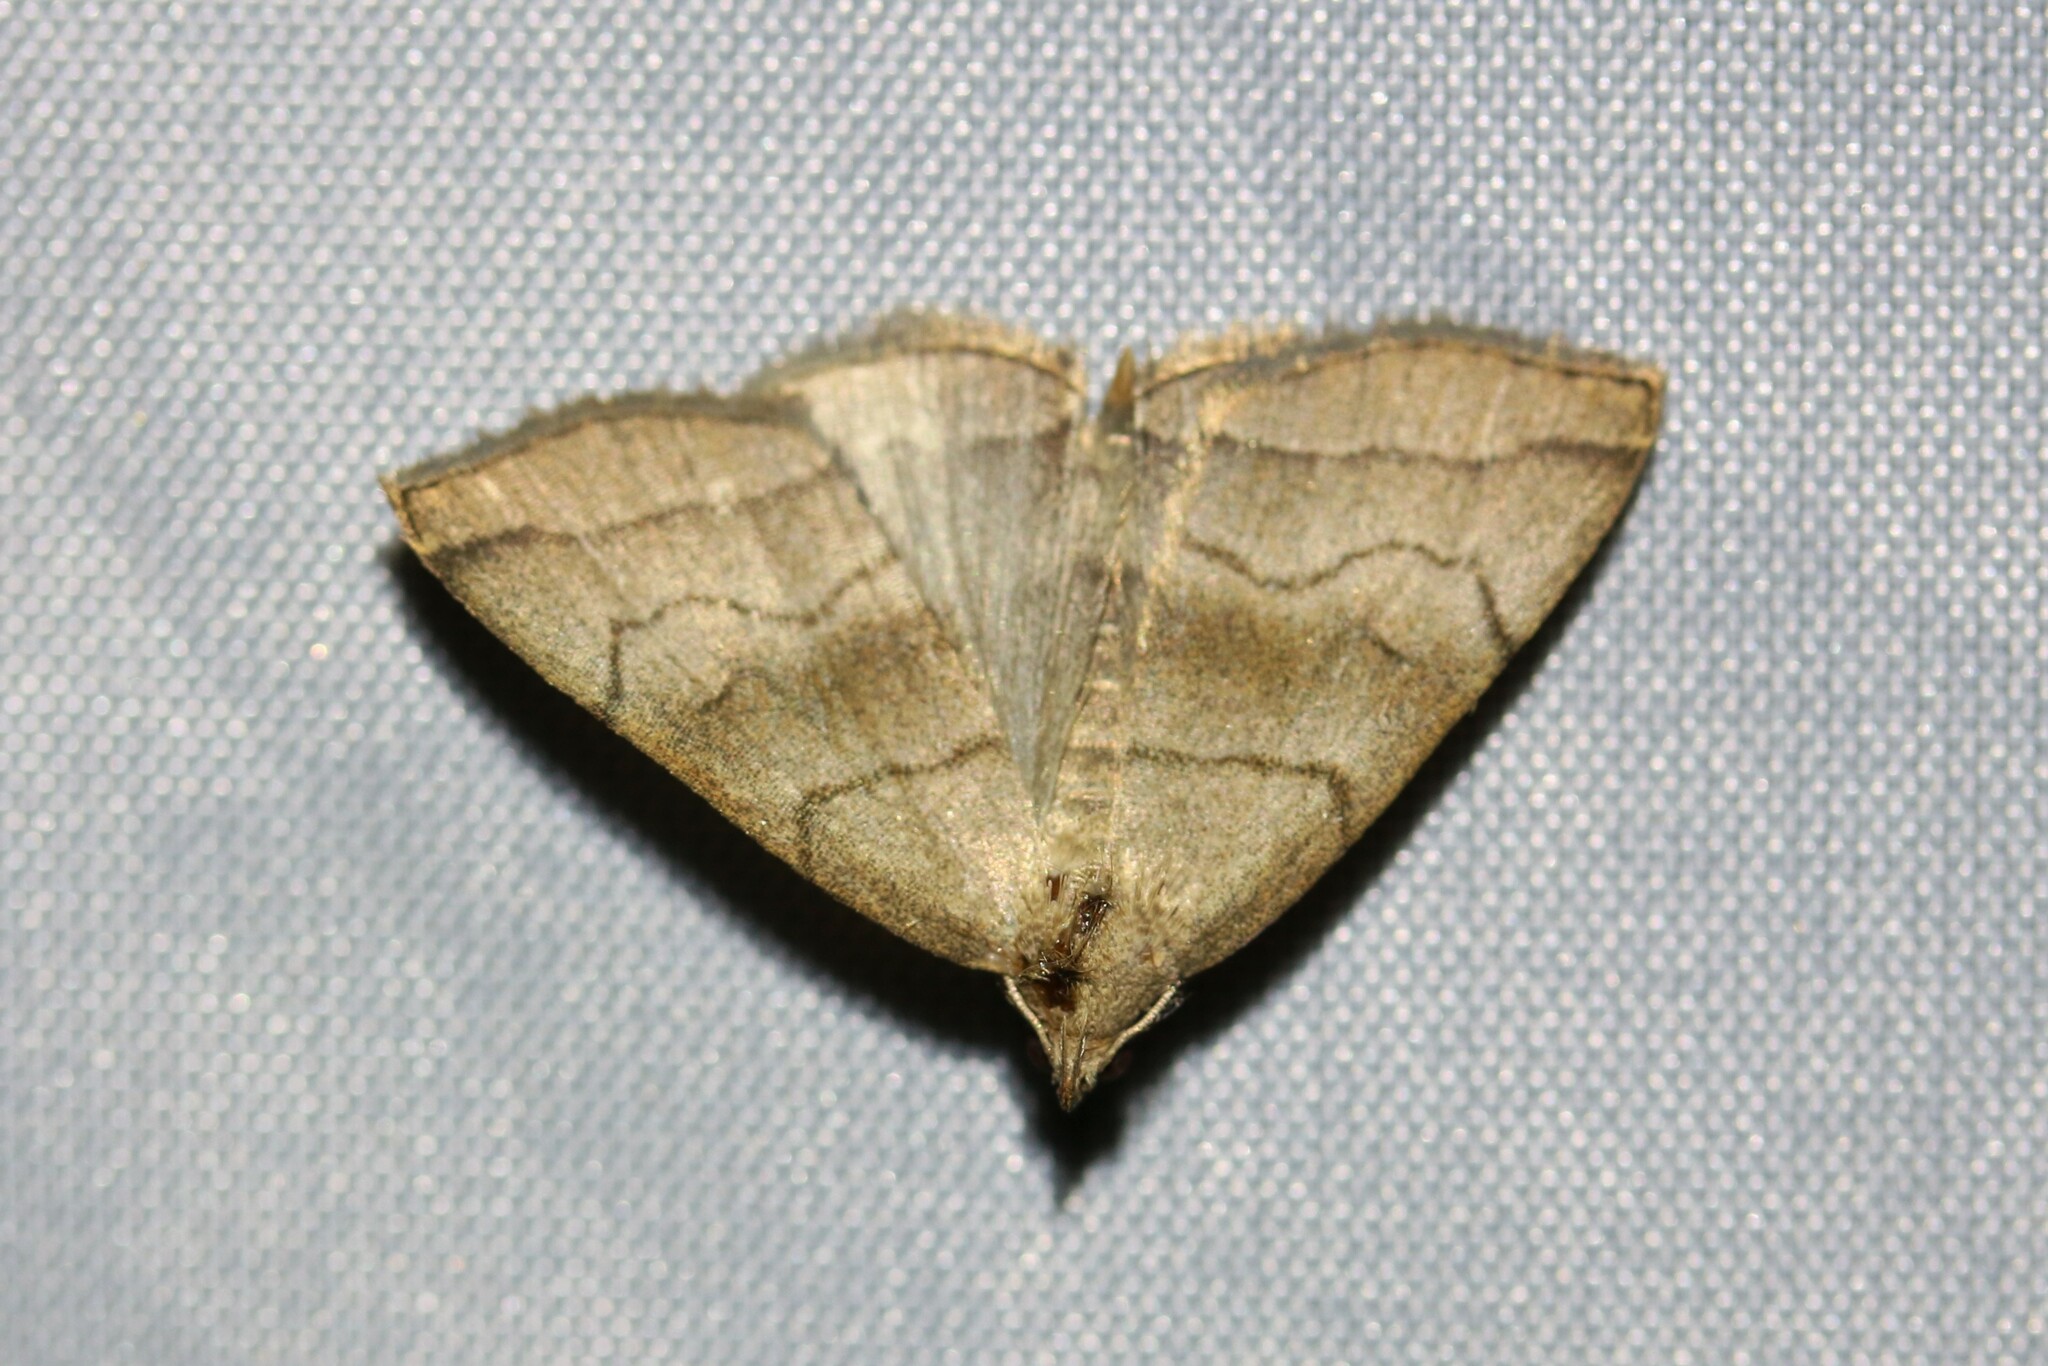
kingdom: Animalia
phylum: Arthropoda
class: Insecta
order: Lepidoptera
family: Erebidae
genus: Herminia
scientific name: Herminia tarsicrinalis
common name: Shaded fan-foot
